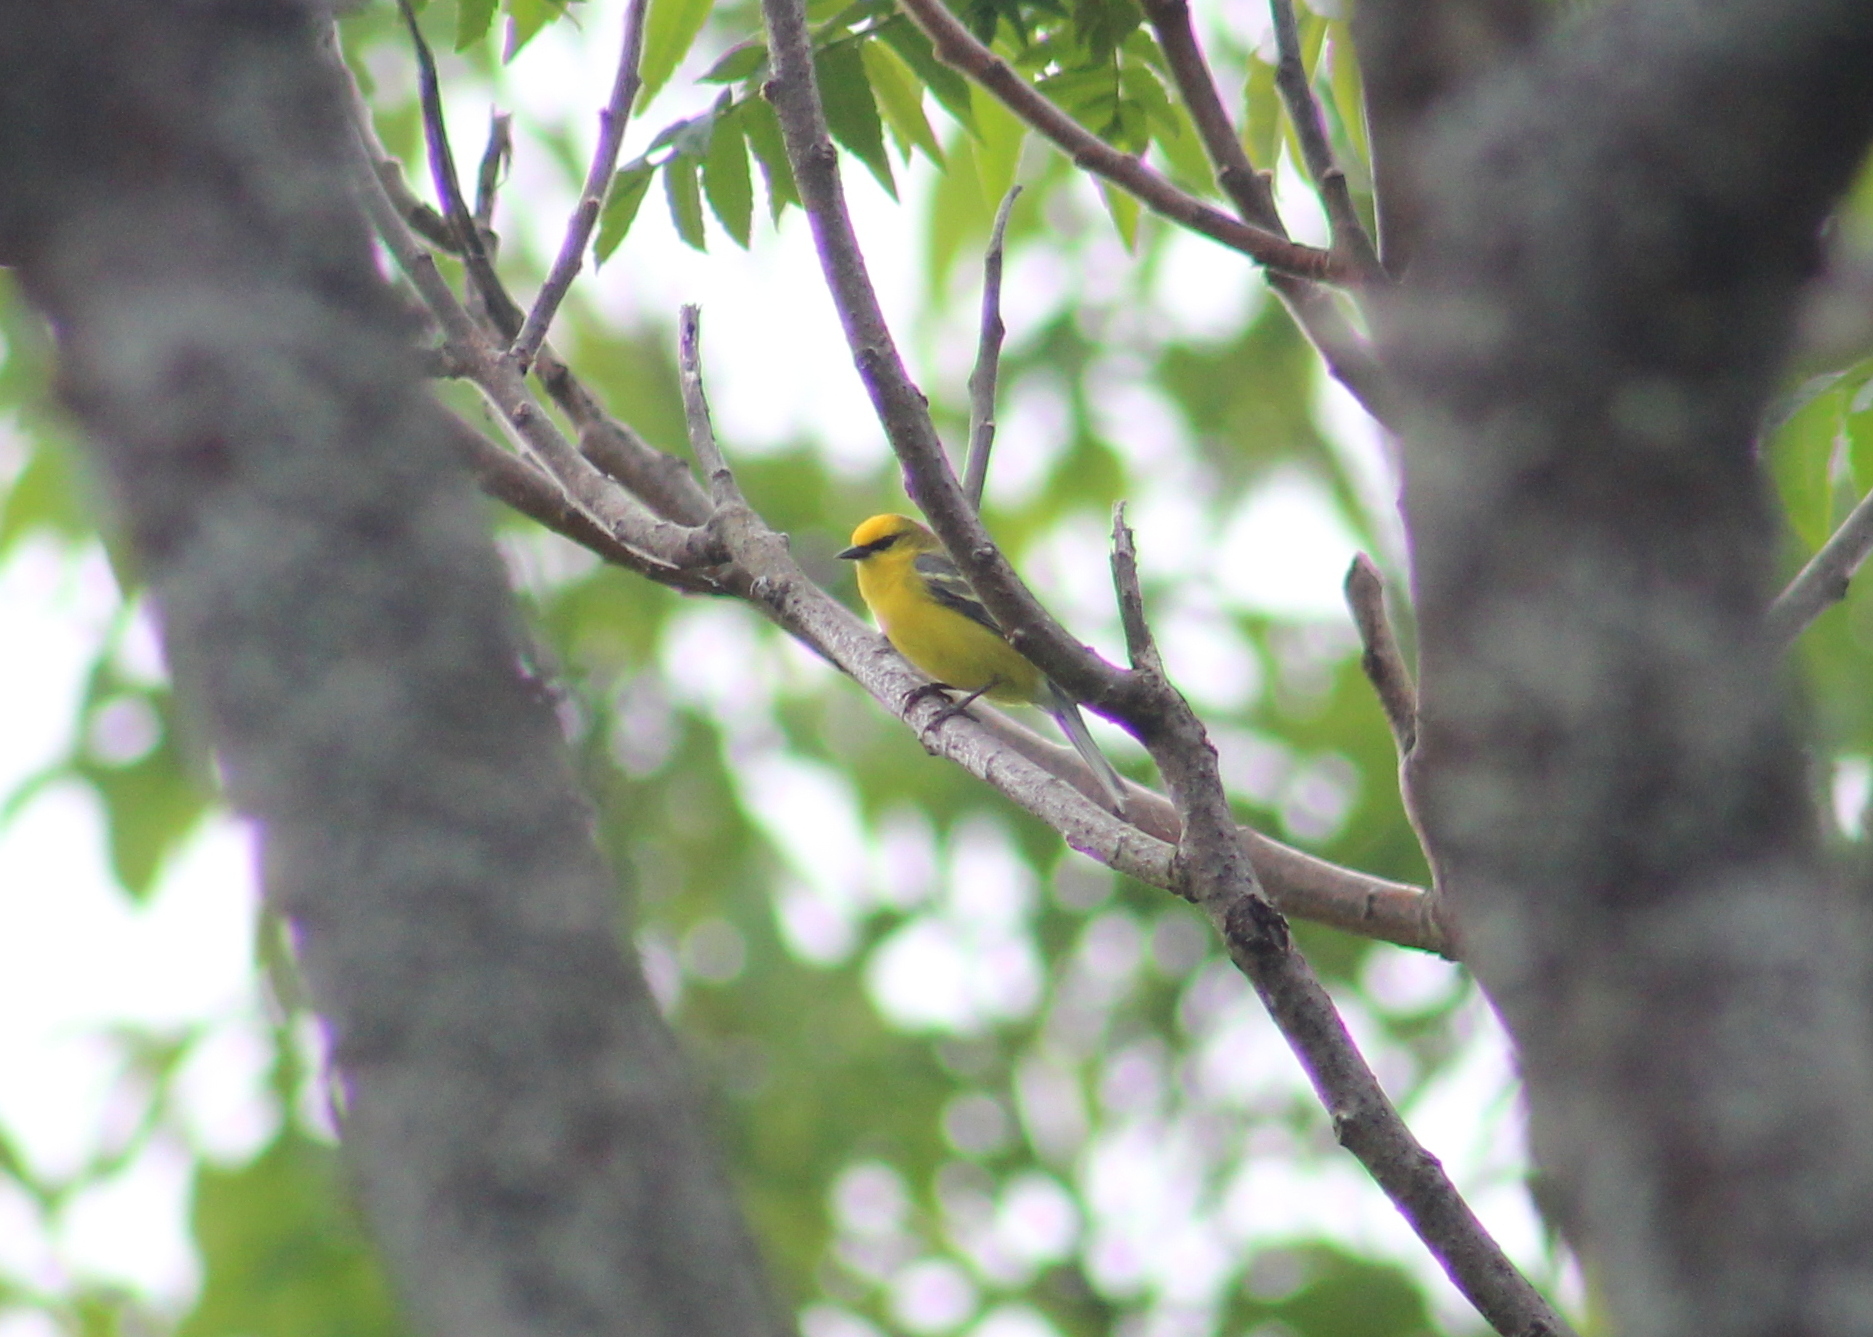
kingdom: Animalia
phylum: Chordata
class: Aves
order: Passeriformes
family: Parulidae
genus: Vermivora
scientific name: Vermivora cyanoptera
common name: Blue-winged warbler
